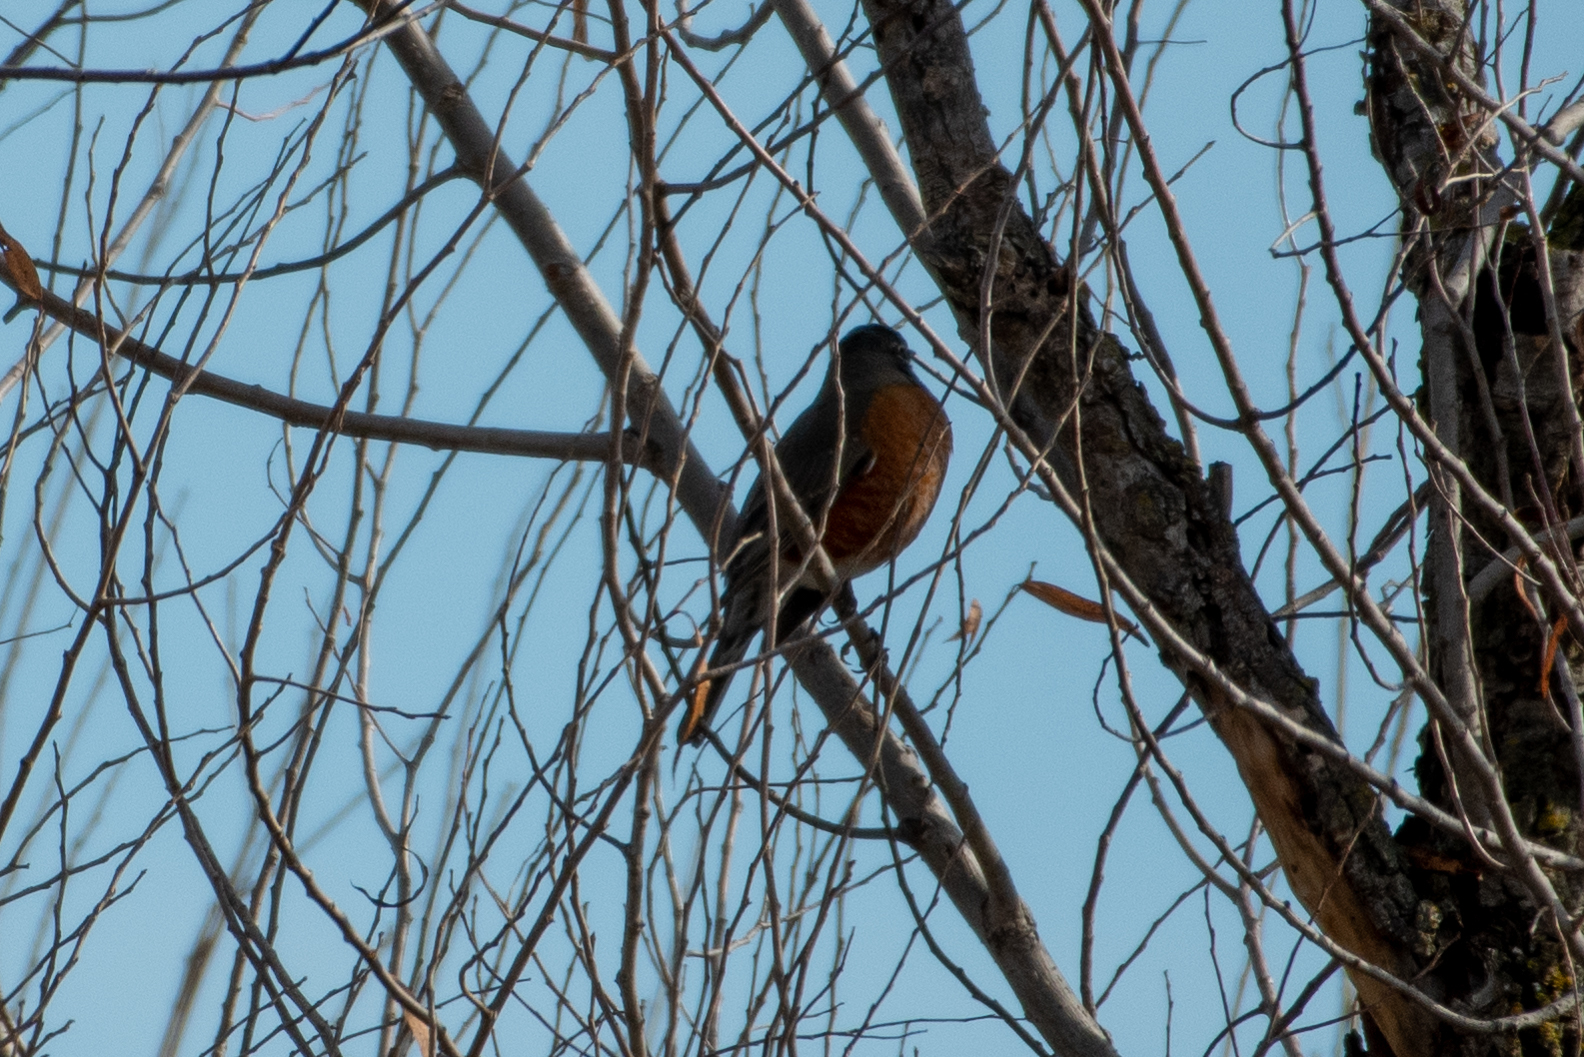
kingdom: Animalia
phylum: Chordata
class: Aves
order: Passeriformes
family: Turdidae
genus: Turdus
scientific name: Turdus migratorius
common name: American robin
